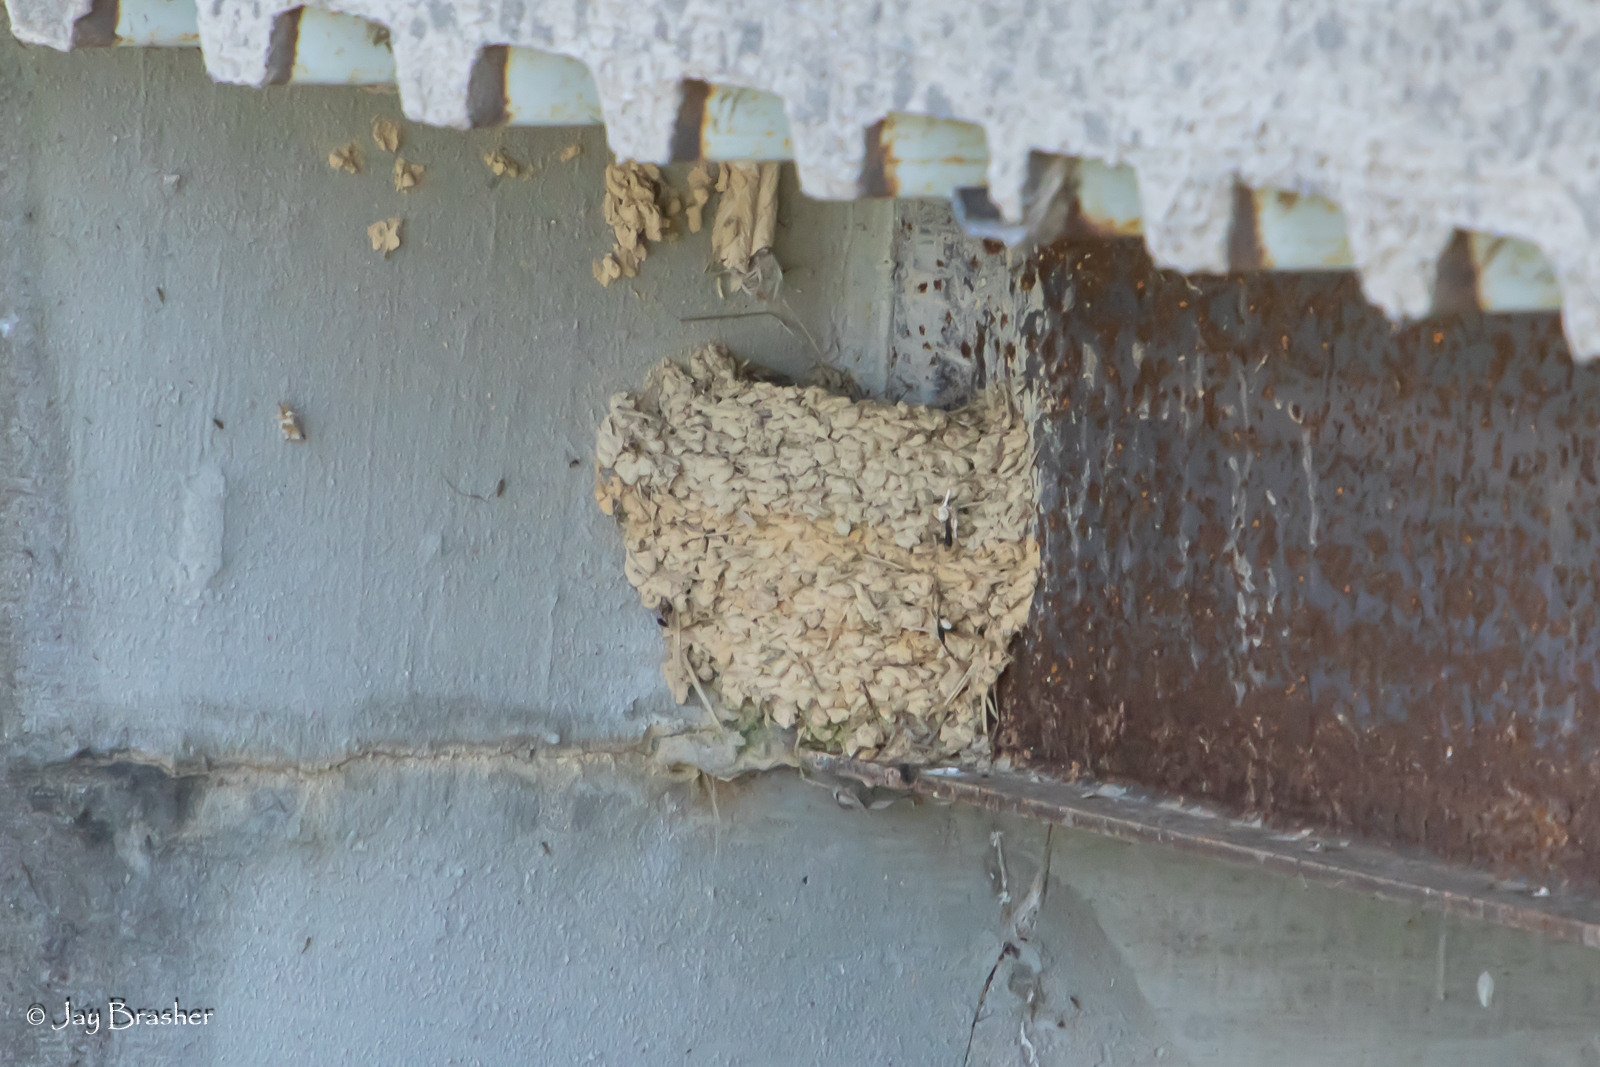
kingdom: Animalia
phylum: Chordata
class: Aves
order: Passeriformes
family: Hirundinidae
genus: Hirundo
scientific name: Hirundo rustica
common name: Barn swallow
